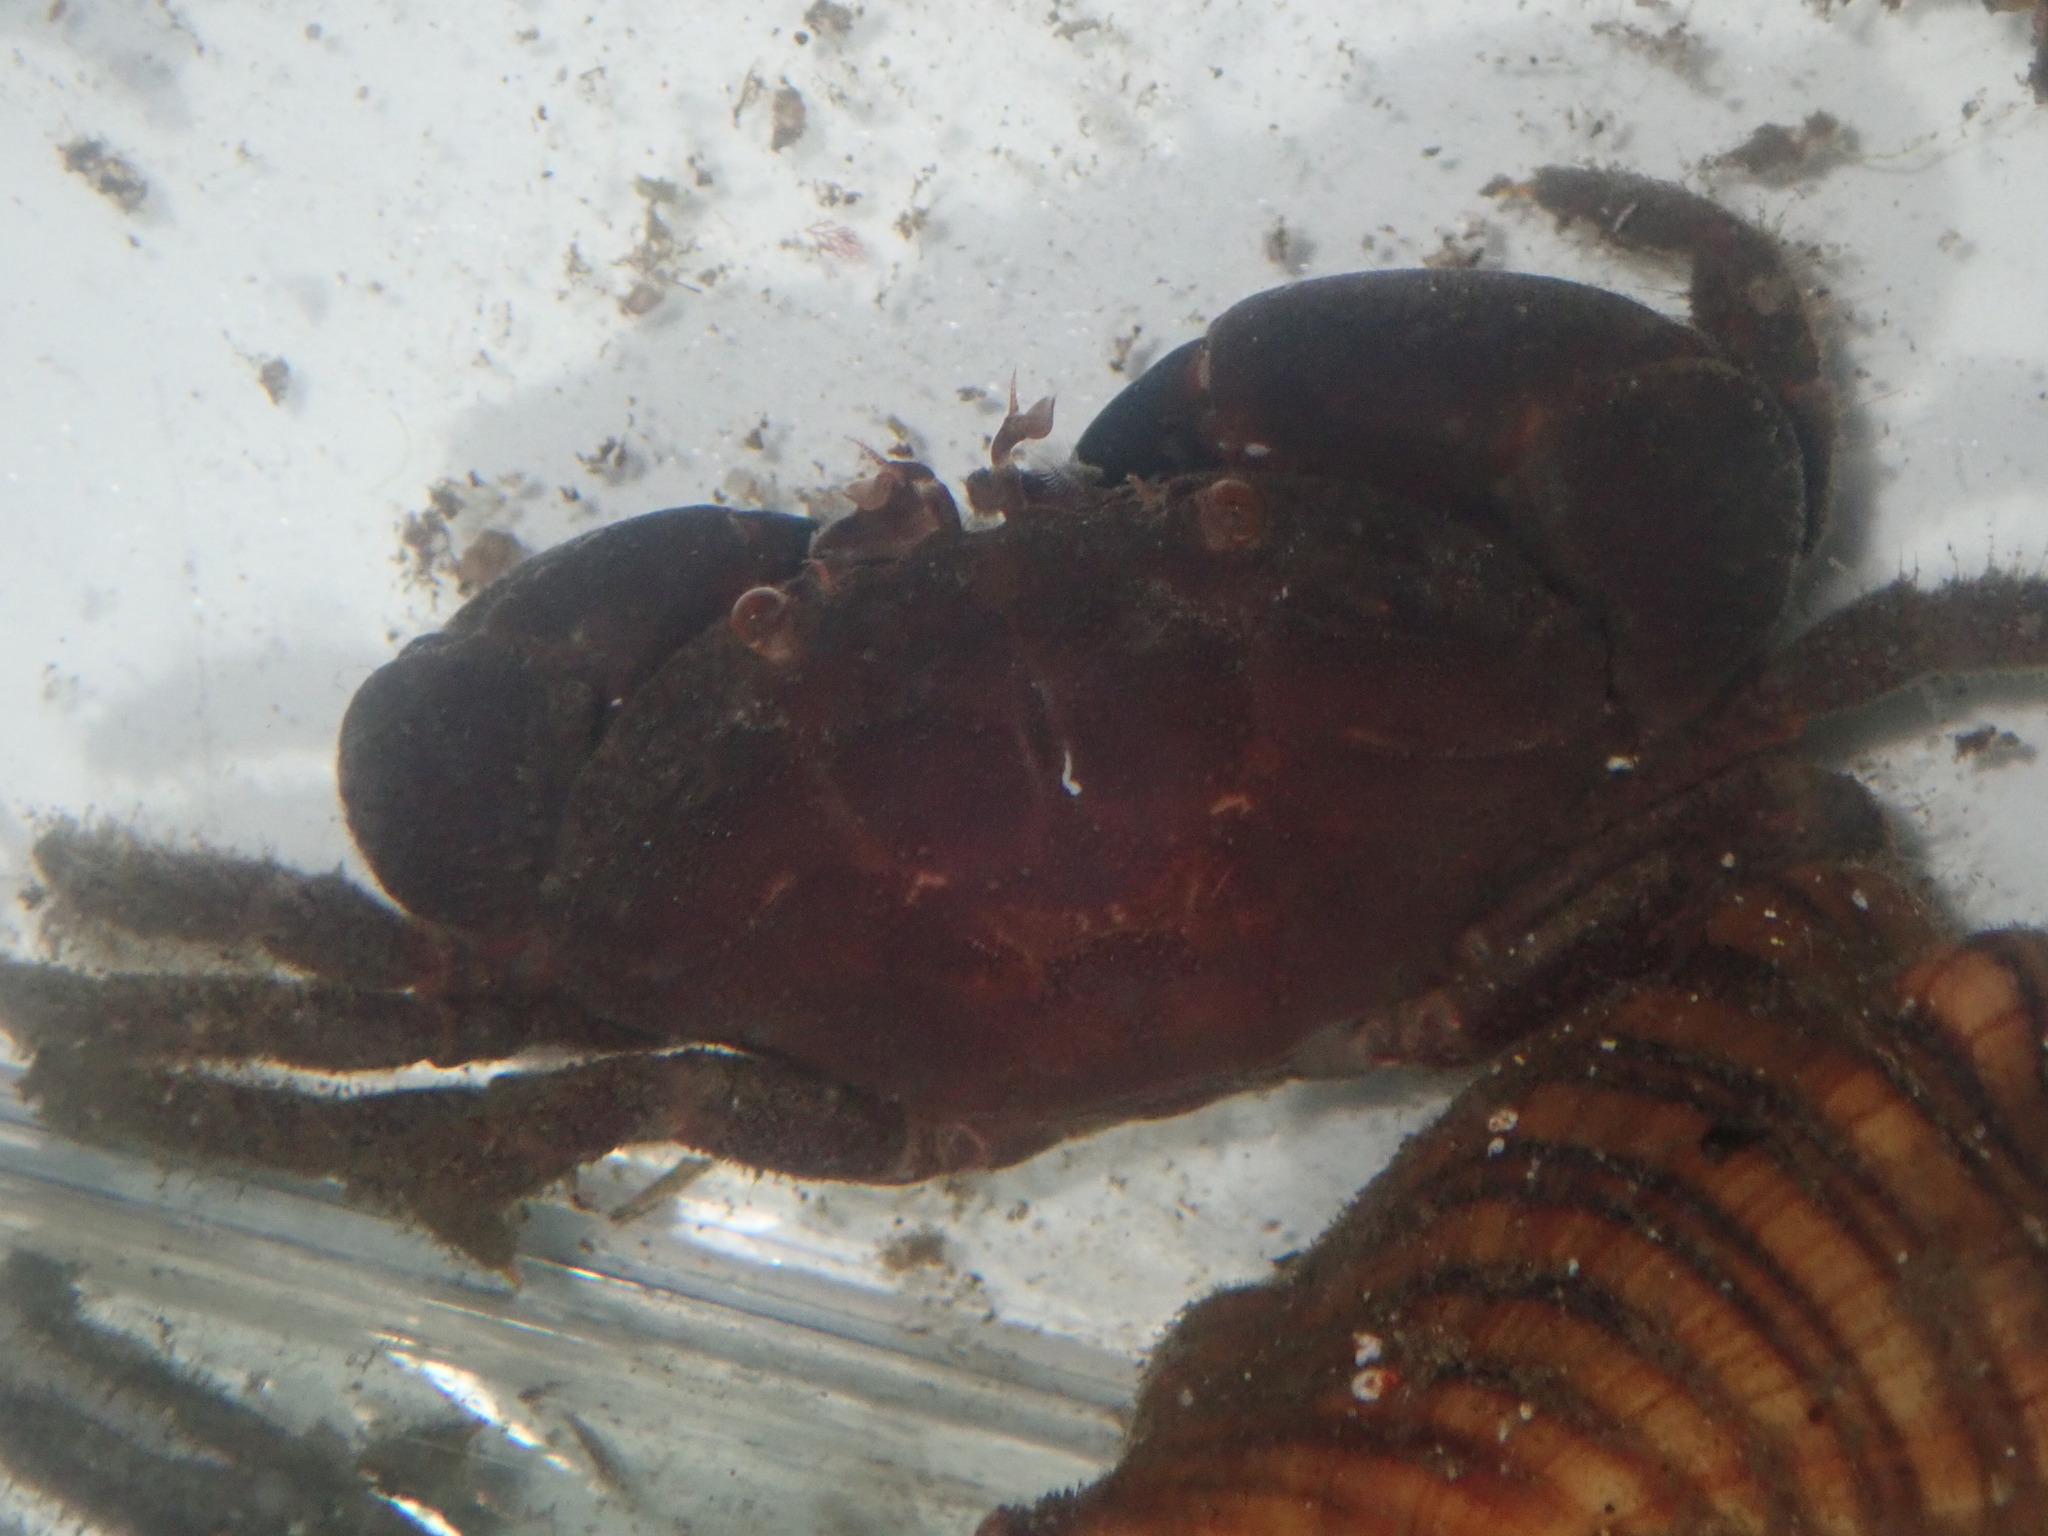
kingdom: Animalia
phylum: Arthropoda
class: Malacostraca
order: Decapoda
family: Oziidae
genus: Ozius
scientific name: Ozius truncatus
